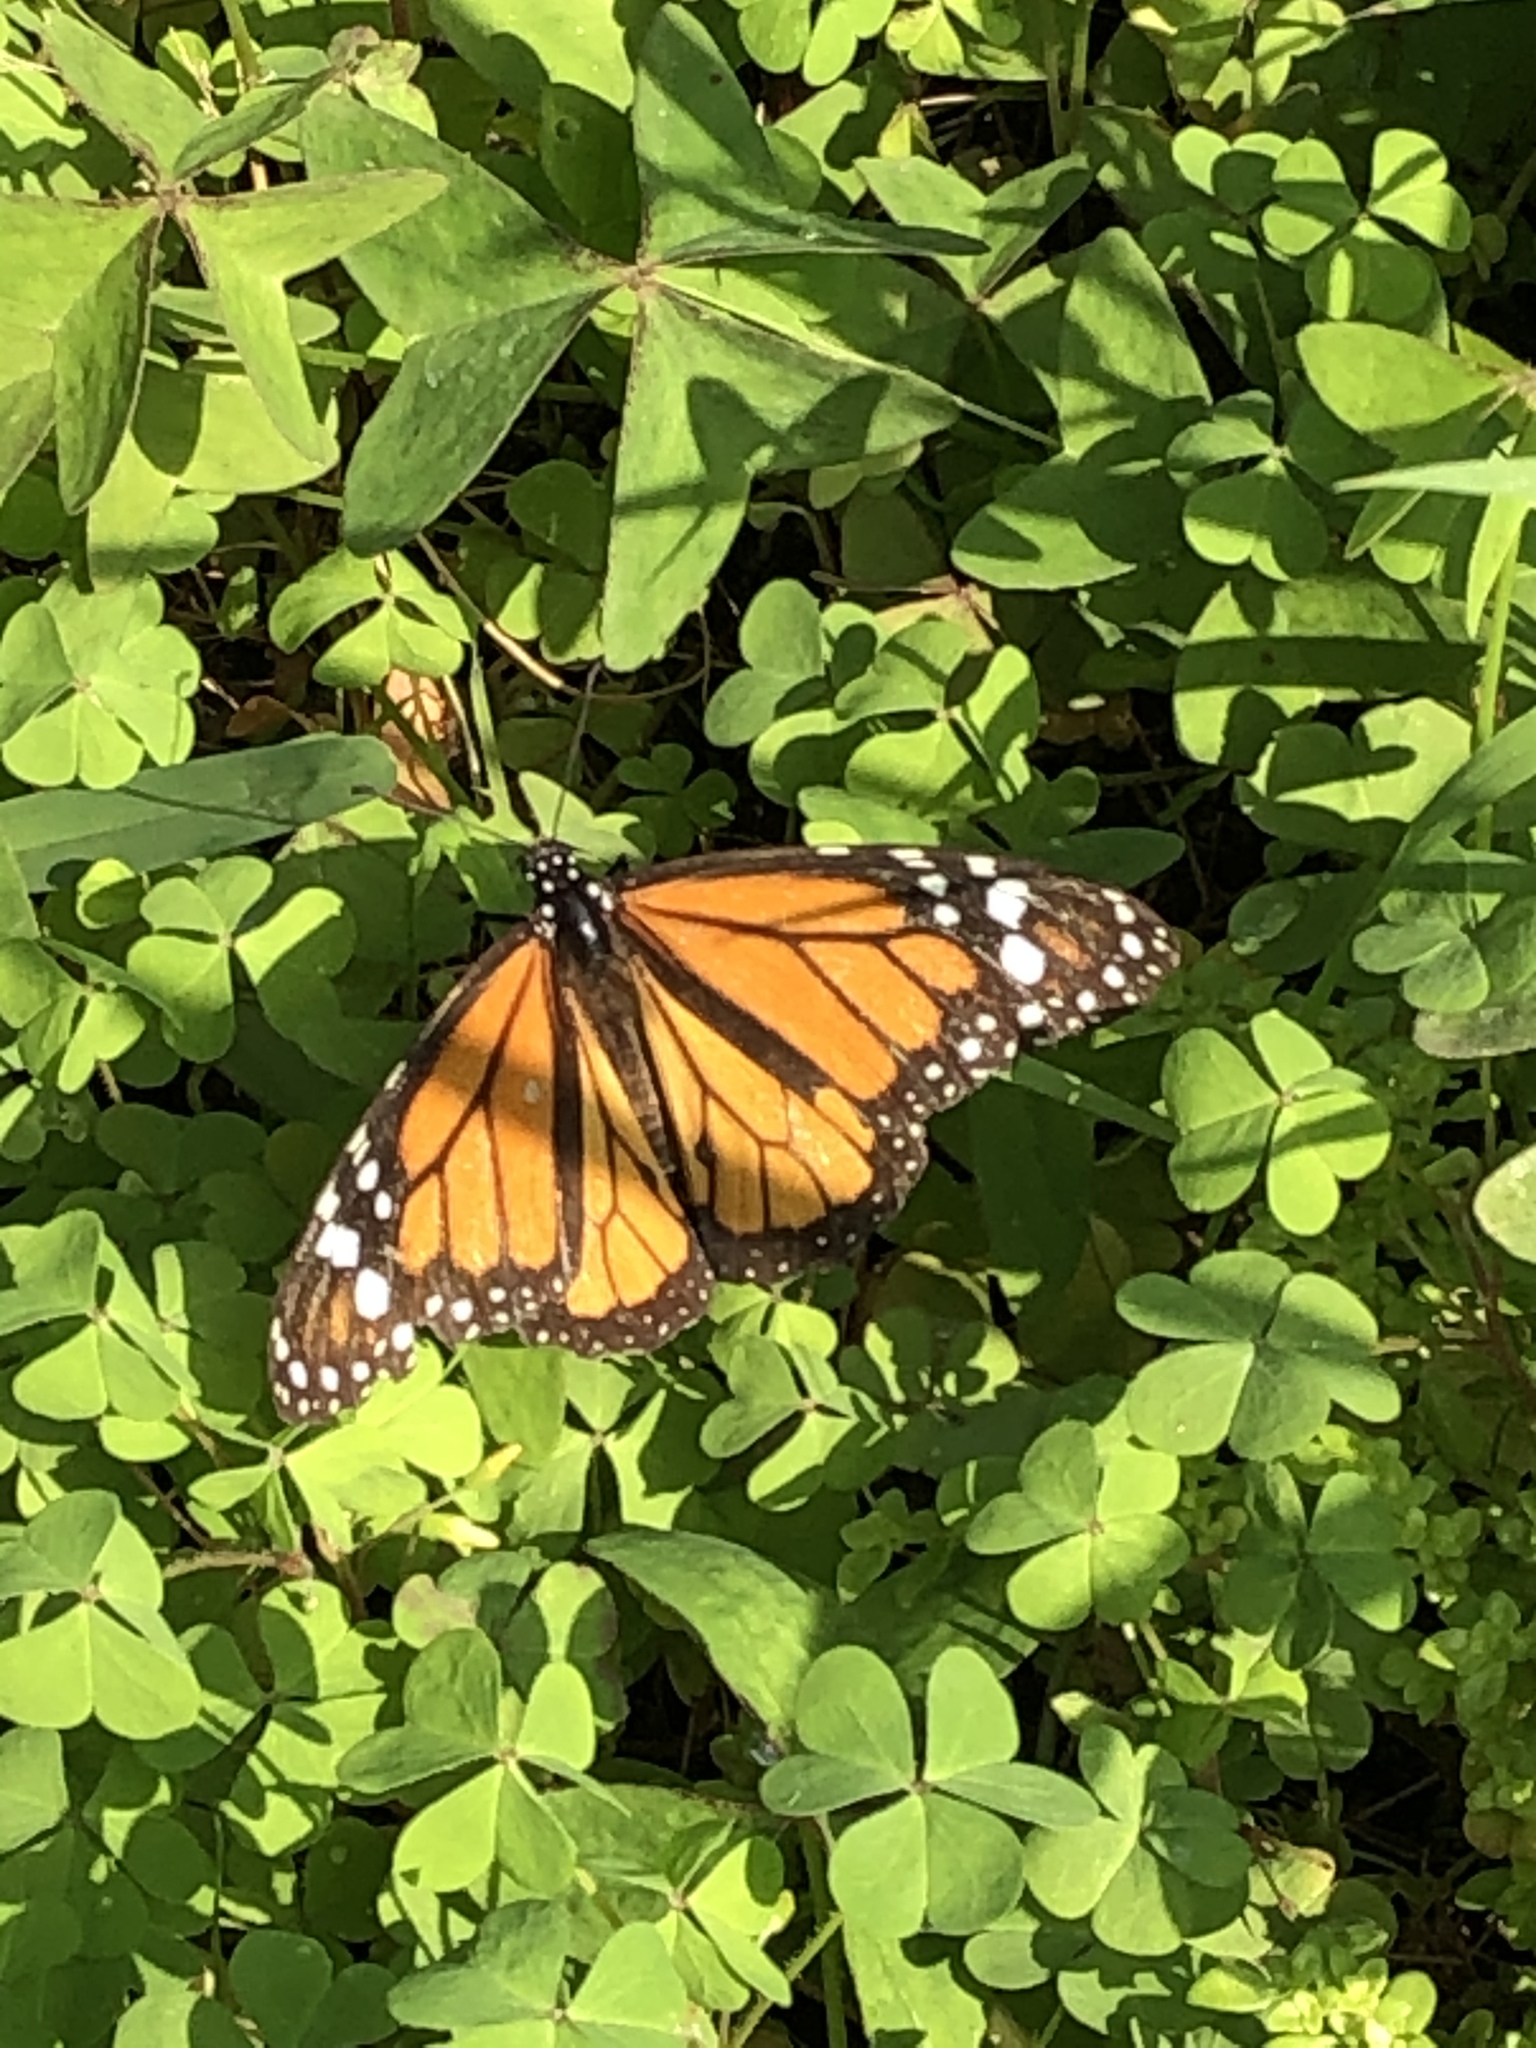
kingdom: Animalia
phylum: Arthropoda
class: Insecta
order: Lepidoptera
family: Nymphalidae
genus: Danaus
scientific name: Danaus plexippus
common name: Monarch
